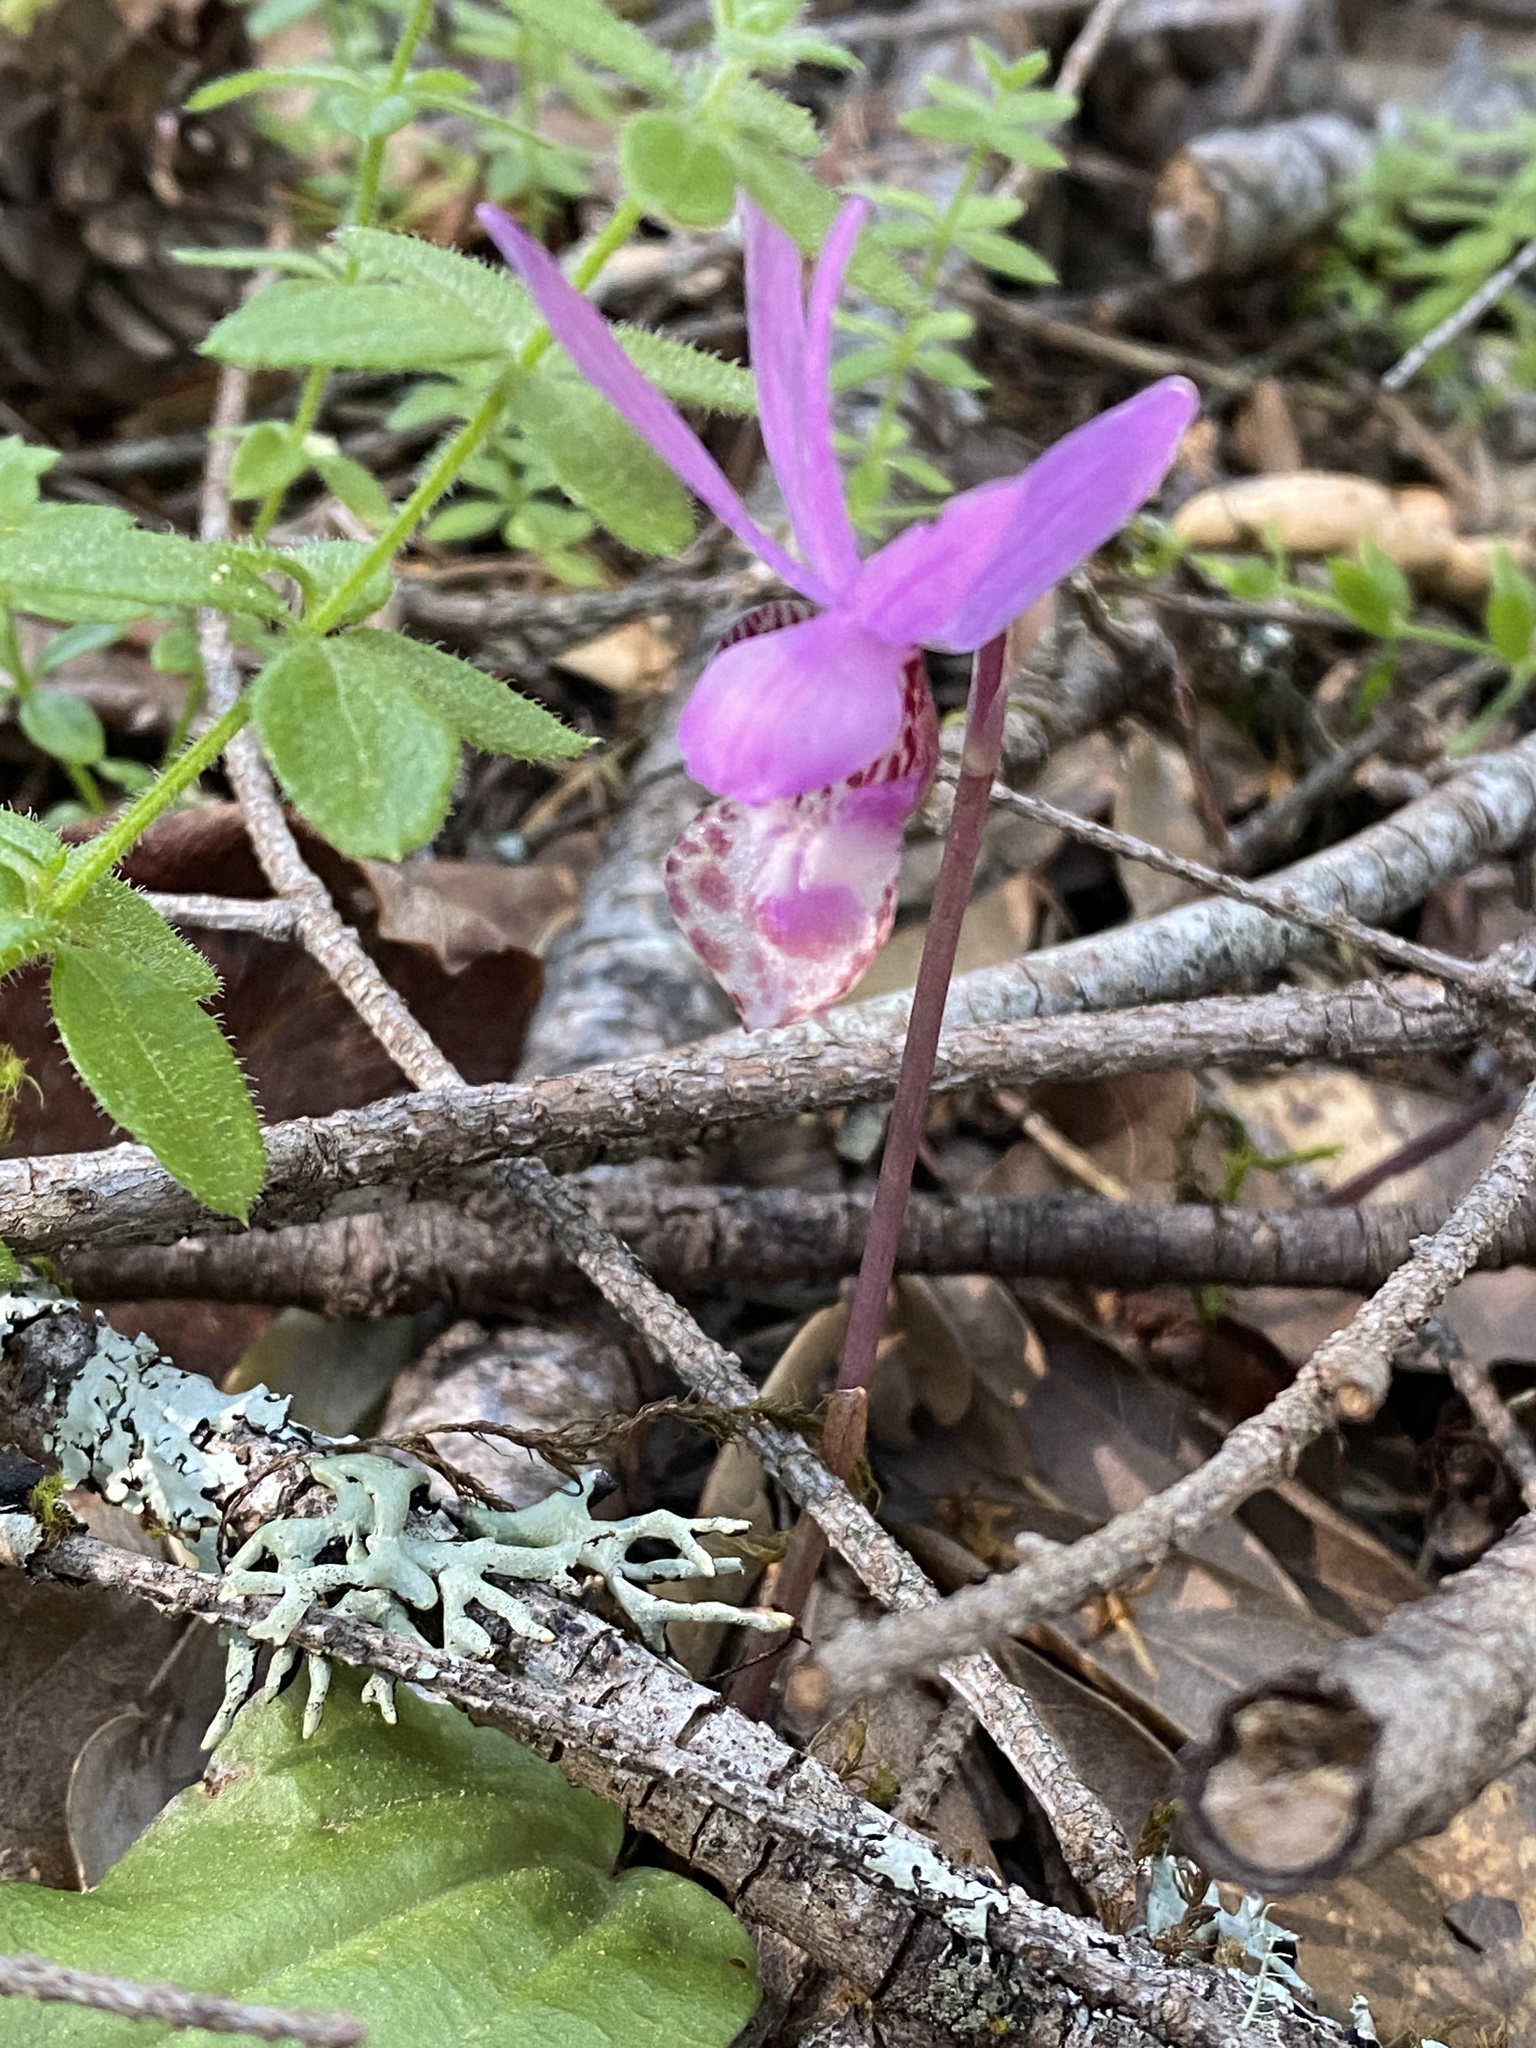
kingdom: Plantae
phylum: Tracheophyta
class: Liliopsida
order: Asparagales
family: Orchidaceae
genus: Calypso
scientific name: Calypso bulbosa
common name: Calypso
